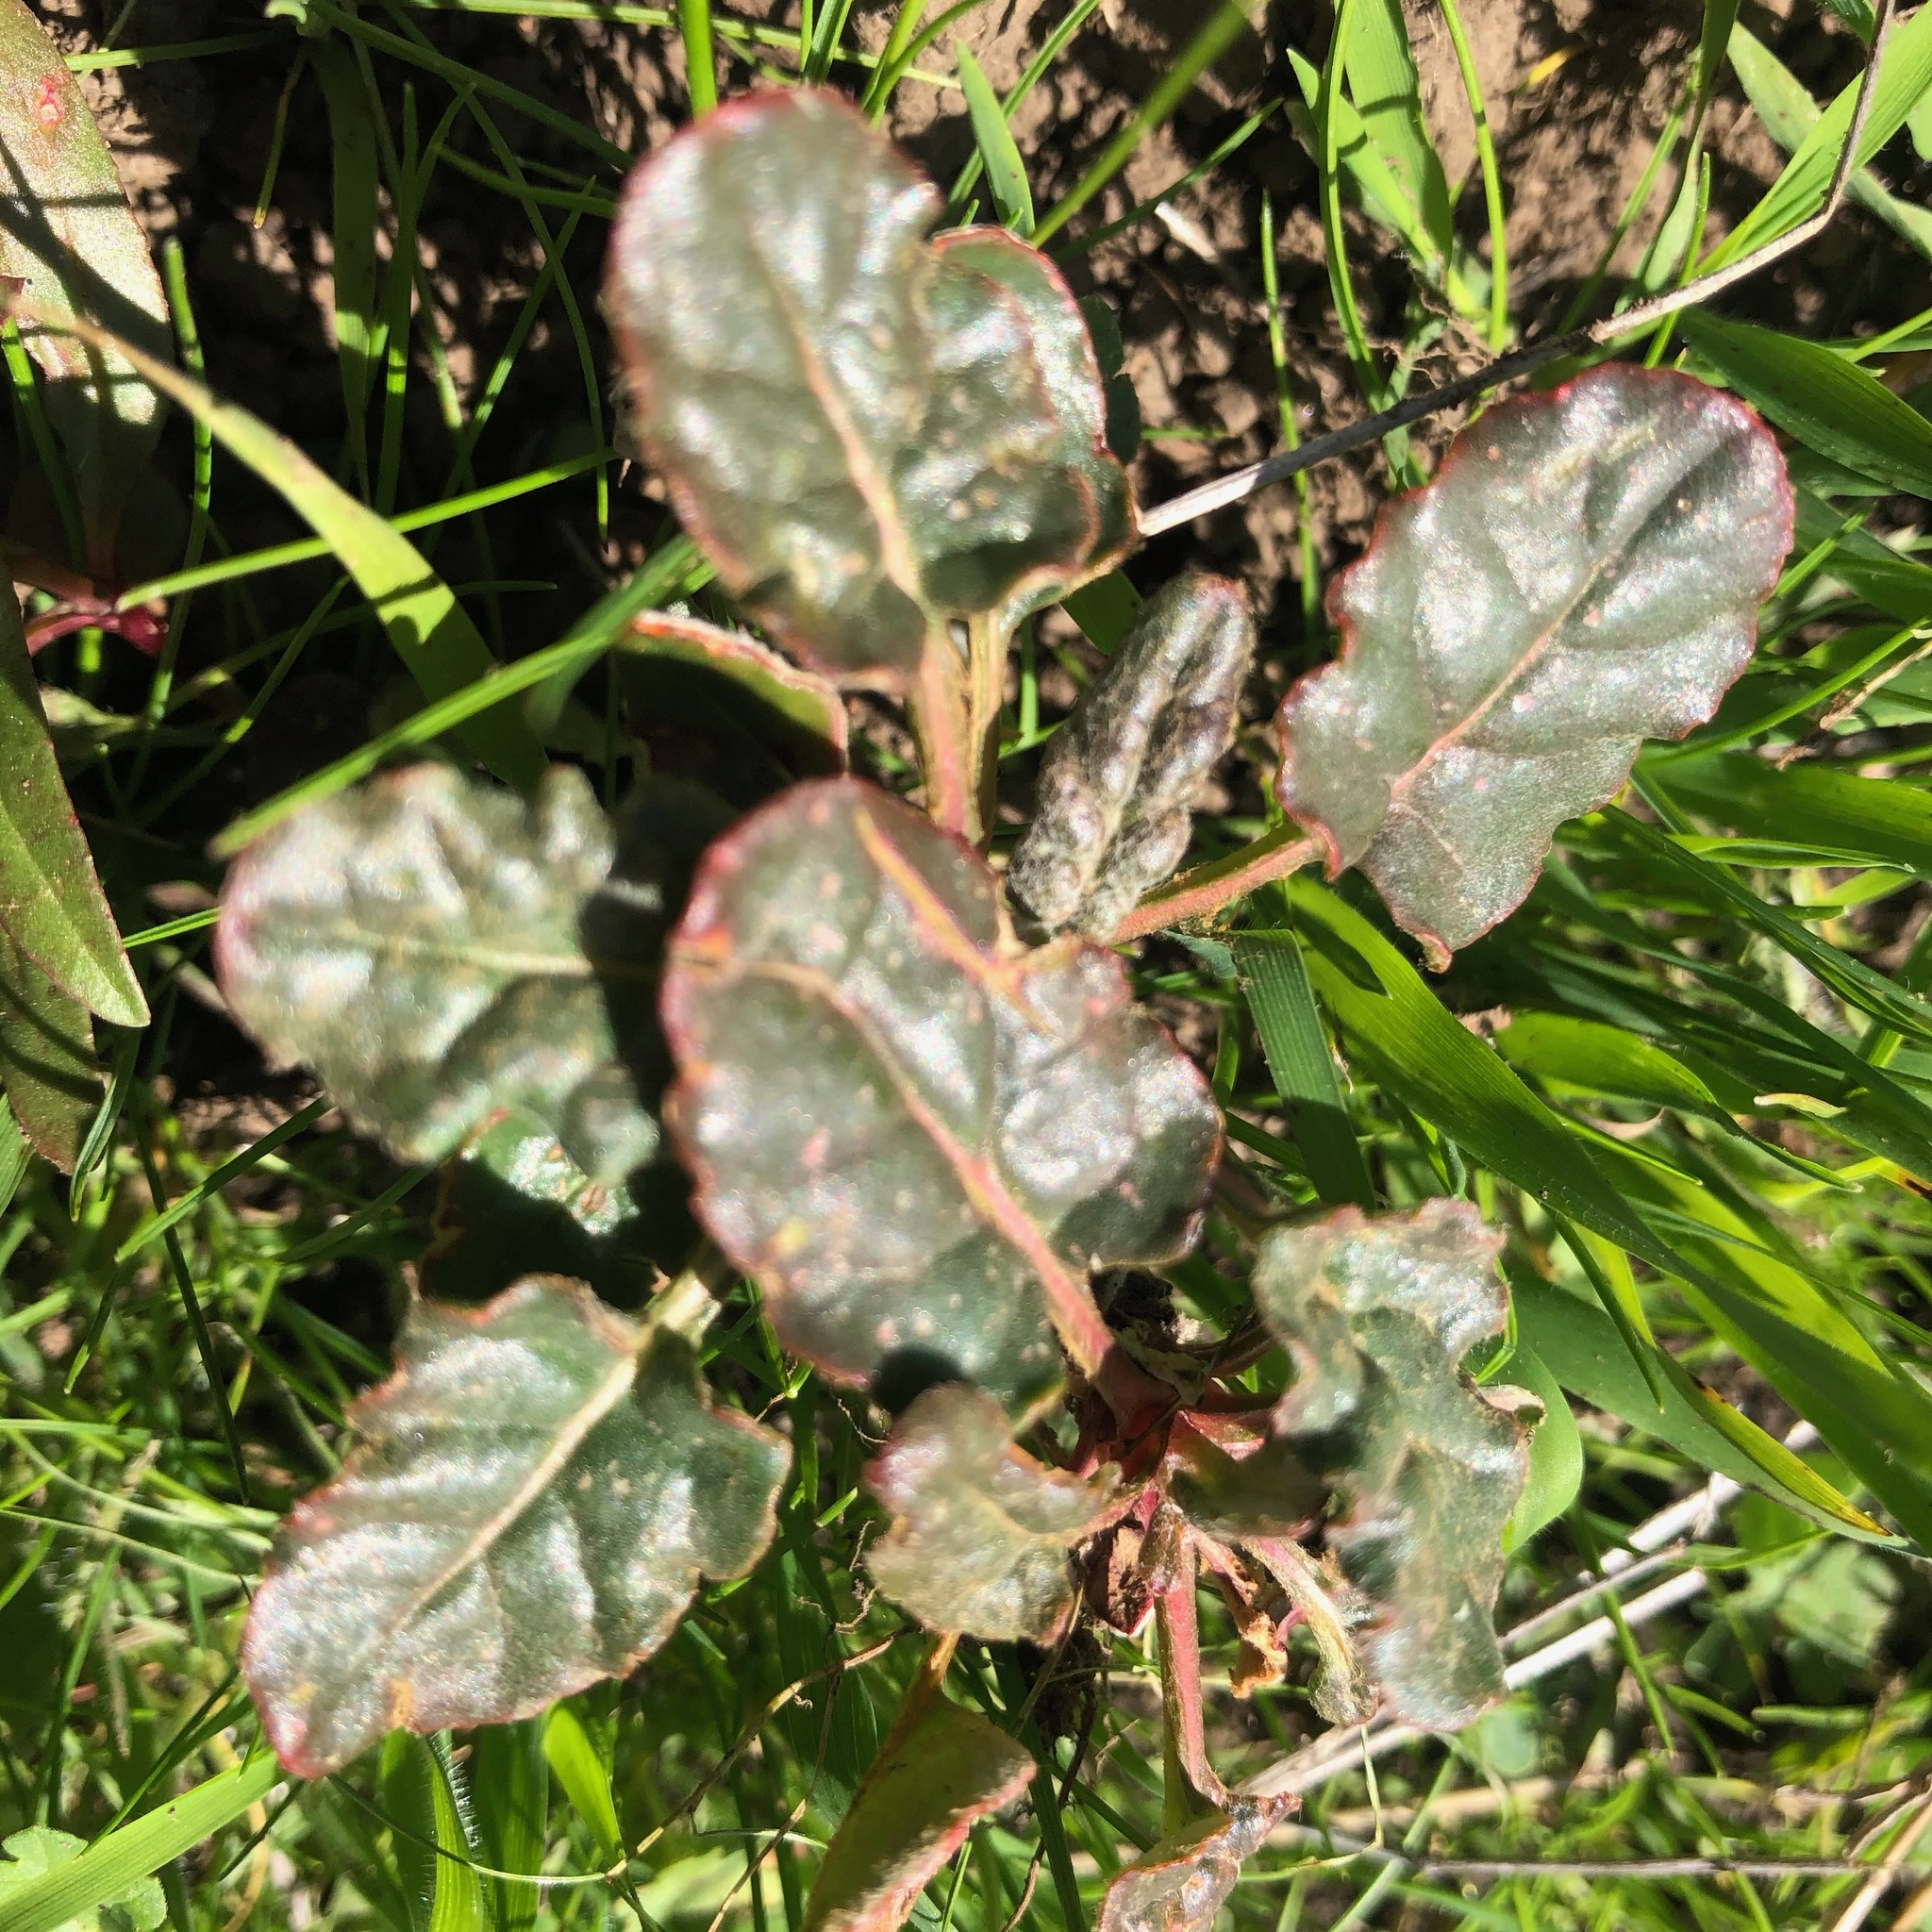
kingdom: Plantae
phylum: Tracheophyta
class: Magnoliopsida
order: Caryophyllales
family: Polygonaceae
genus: Eriogonum
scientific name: Eriogonum nudum
